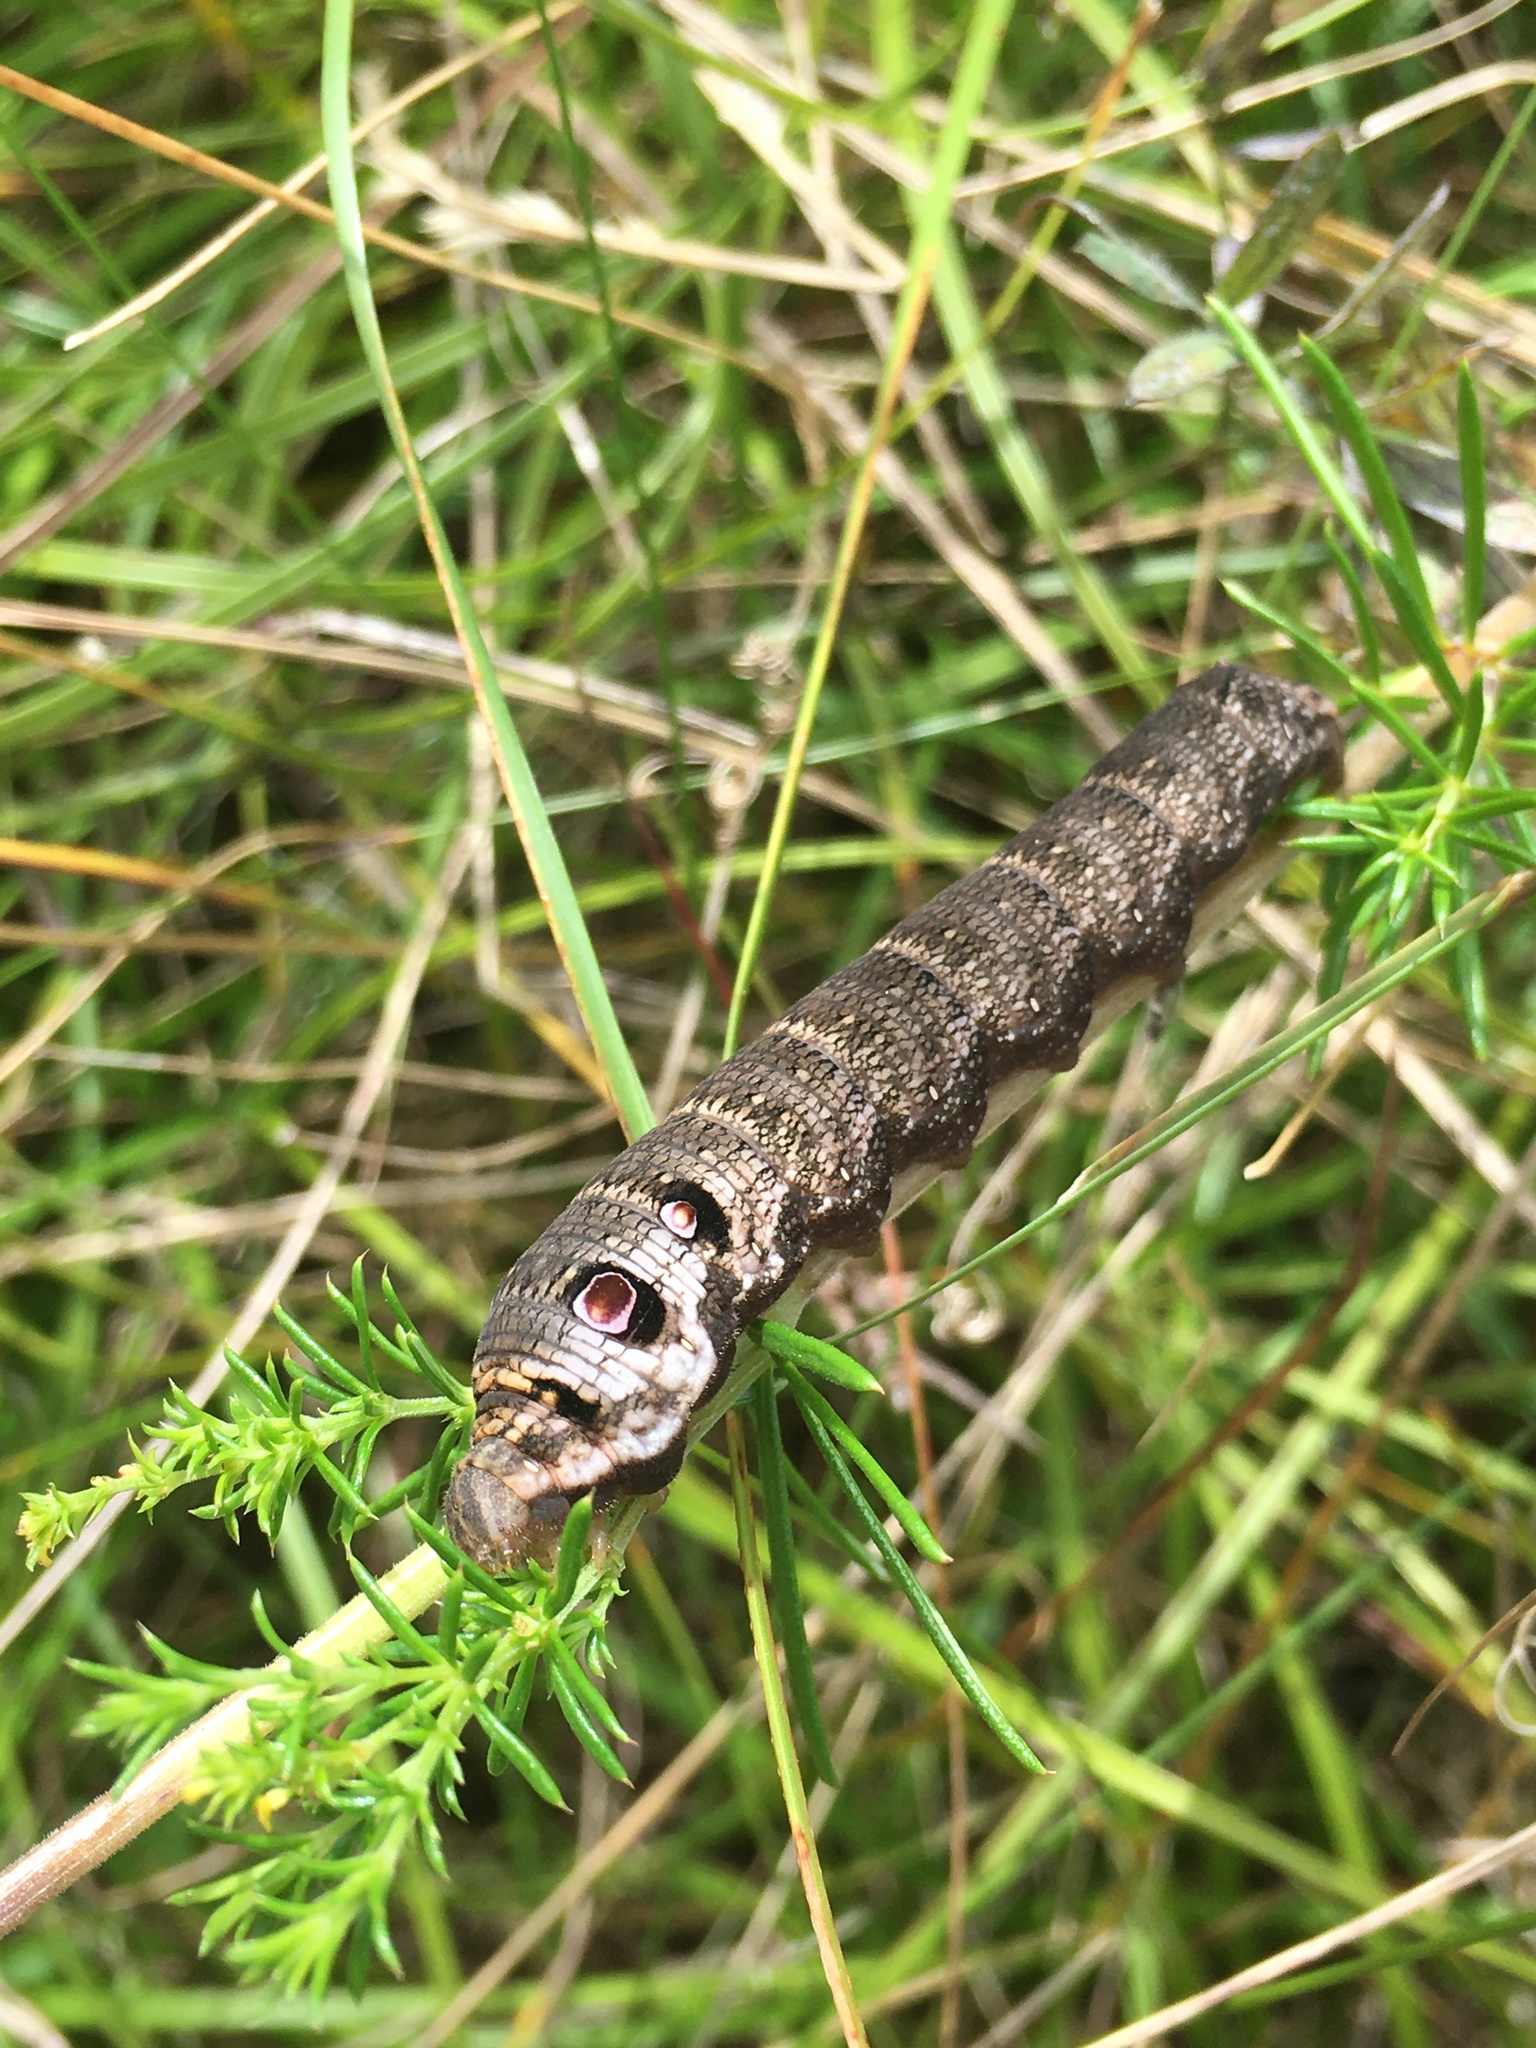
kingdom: Animalia
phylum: Arthropoda
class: Insecta
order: Lepidoptera
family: Sphingidae
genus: Deilephila
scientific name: Deilephila porcellus
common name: Small elephant hawk-moth
